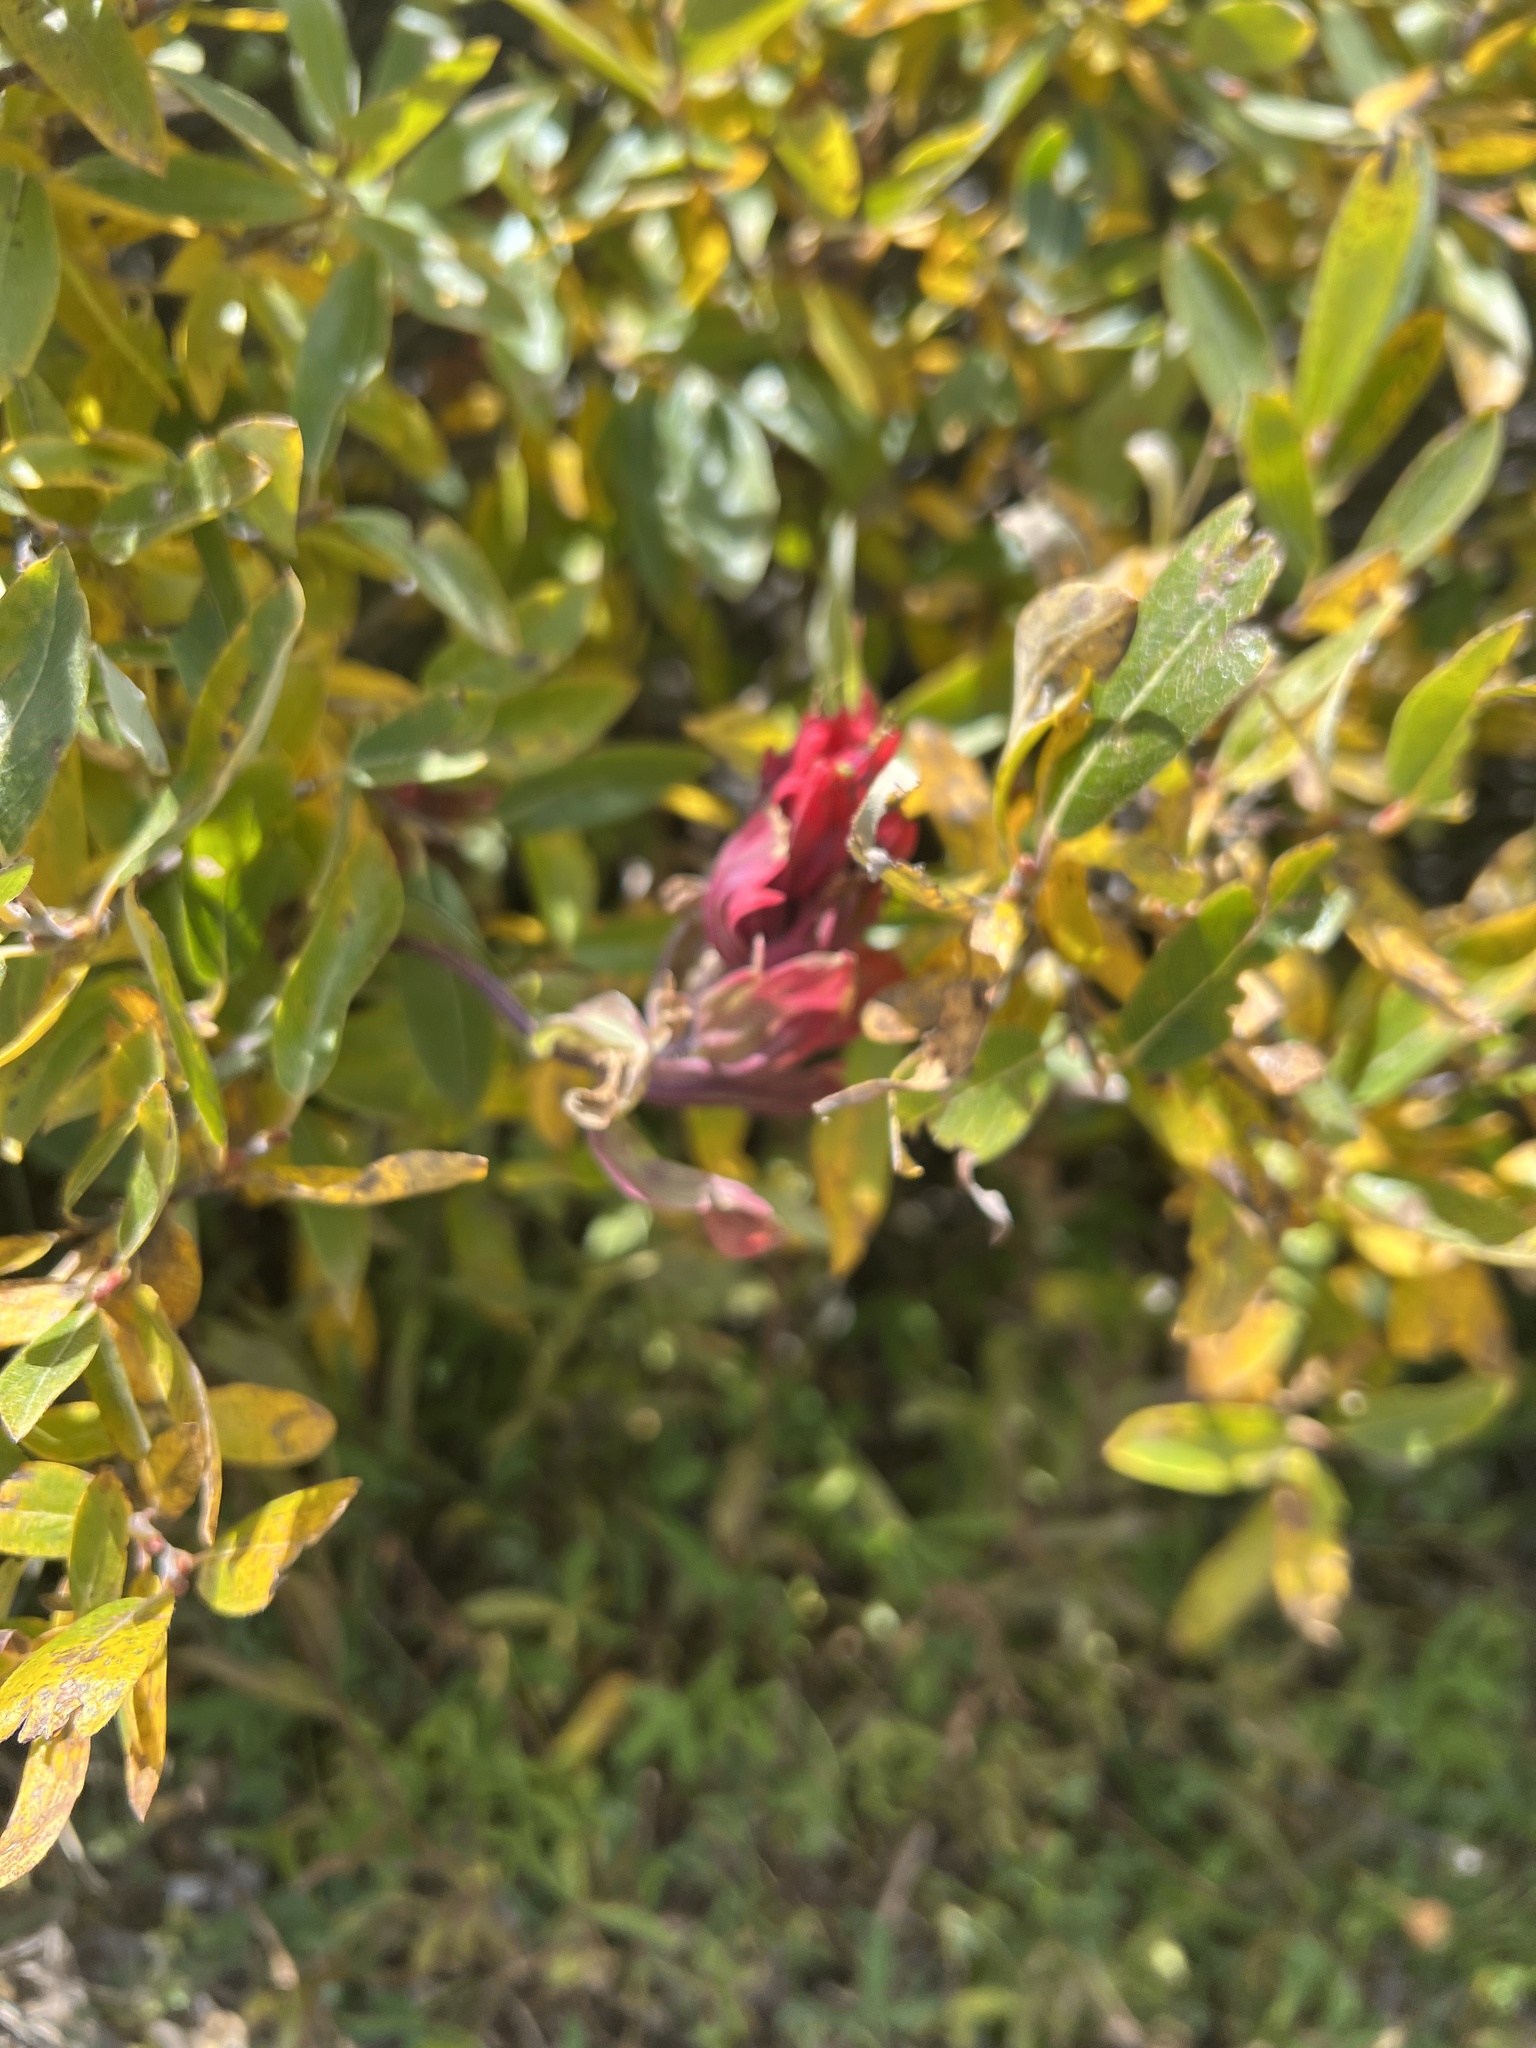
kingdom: Plantae
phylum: Tracheophyta
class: Magnoliopsida
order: Lamiales
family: Orobanchaceae
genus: Castilleja
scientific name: Castilleja rhexifolia
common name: Rocky mountain paintbrush
